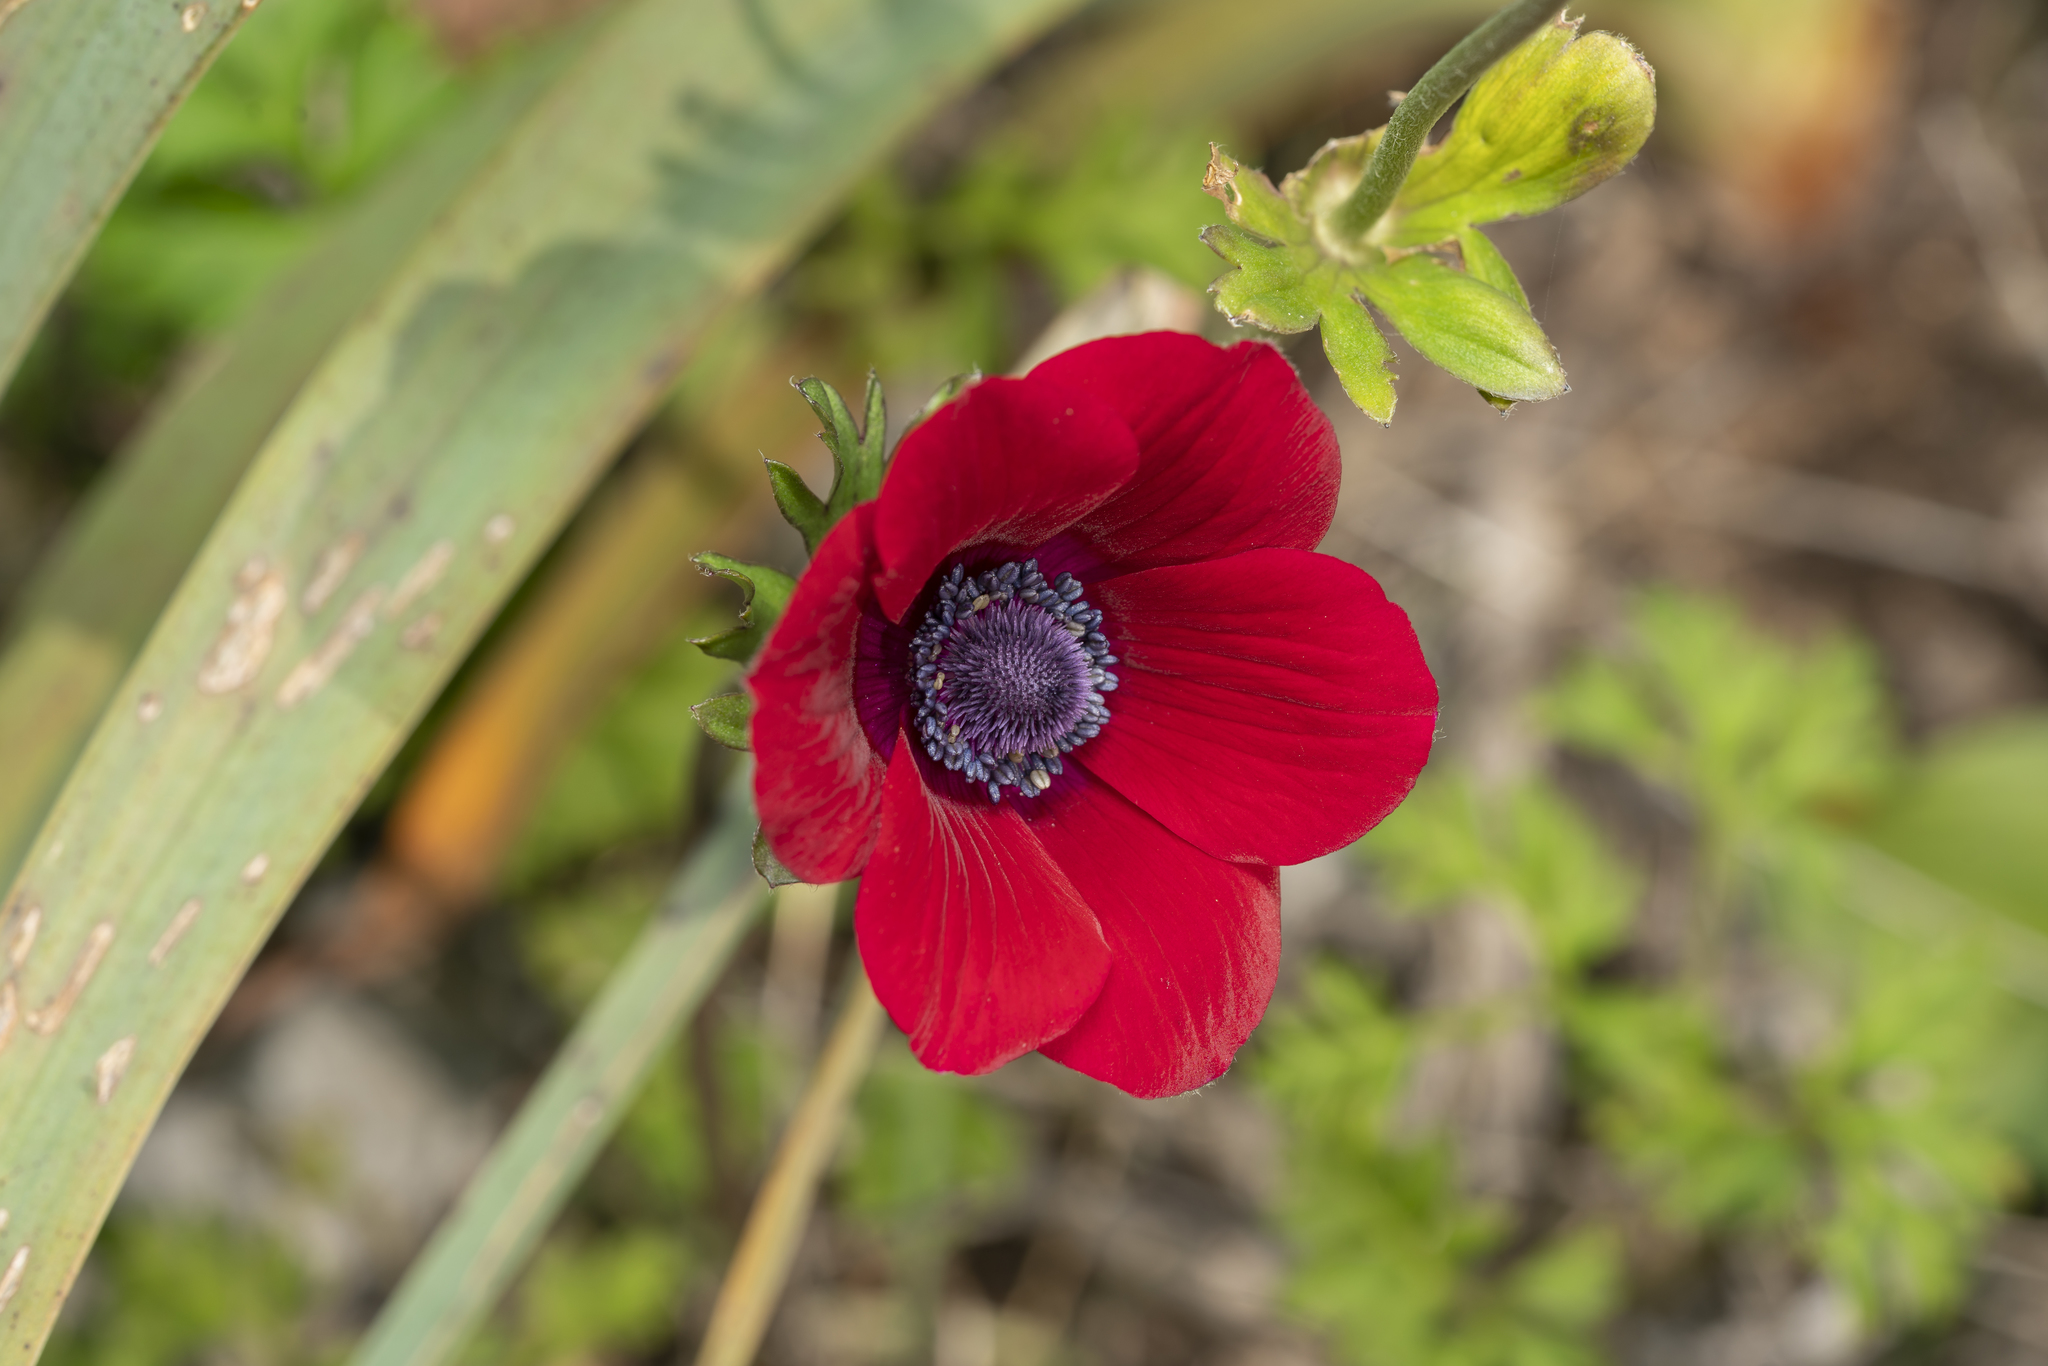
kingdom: Plantae
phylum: Tracheophyta
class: Magnoliopsida
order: Ranunculales
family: Ranunculaceae
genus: Anemone
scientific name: Anemone coronaria
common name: Poppy anemone
